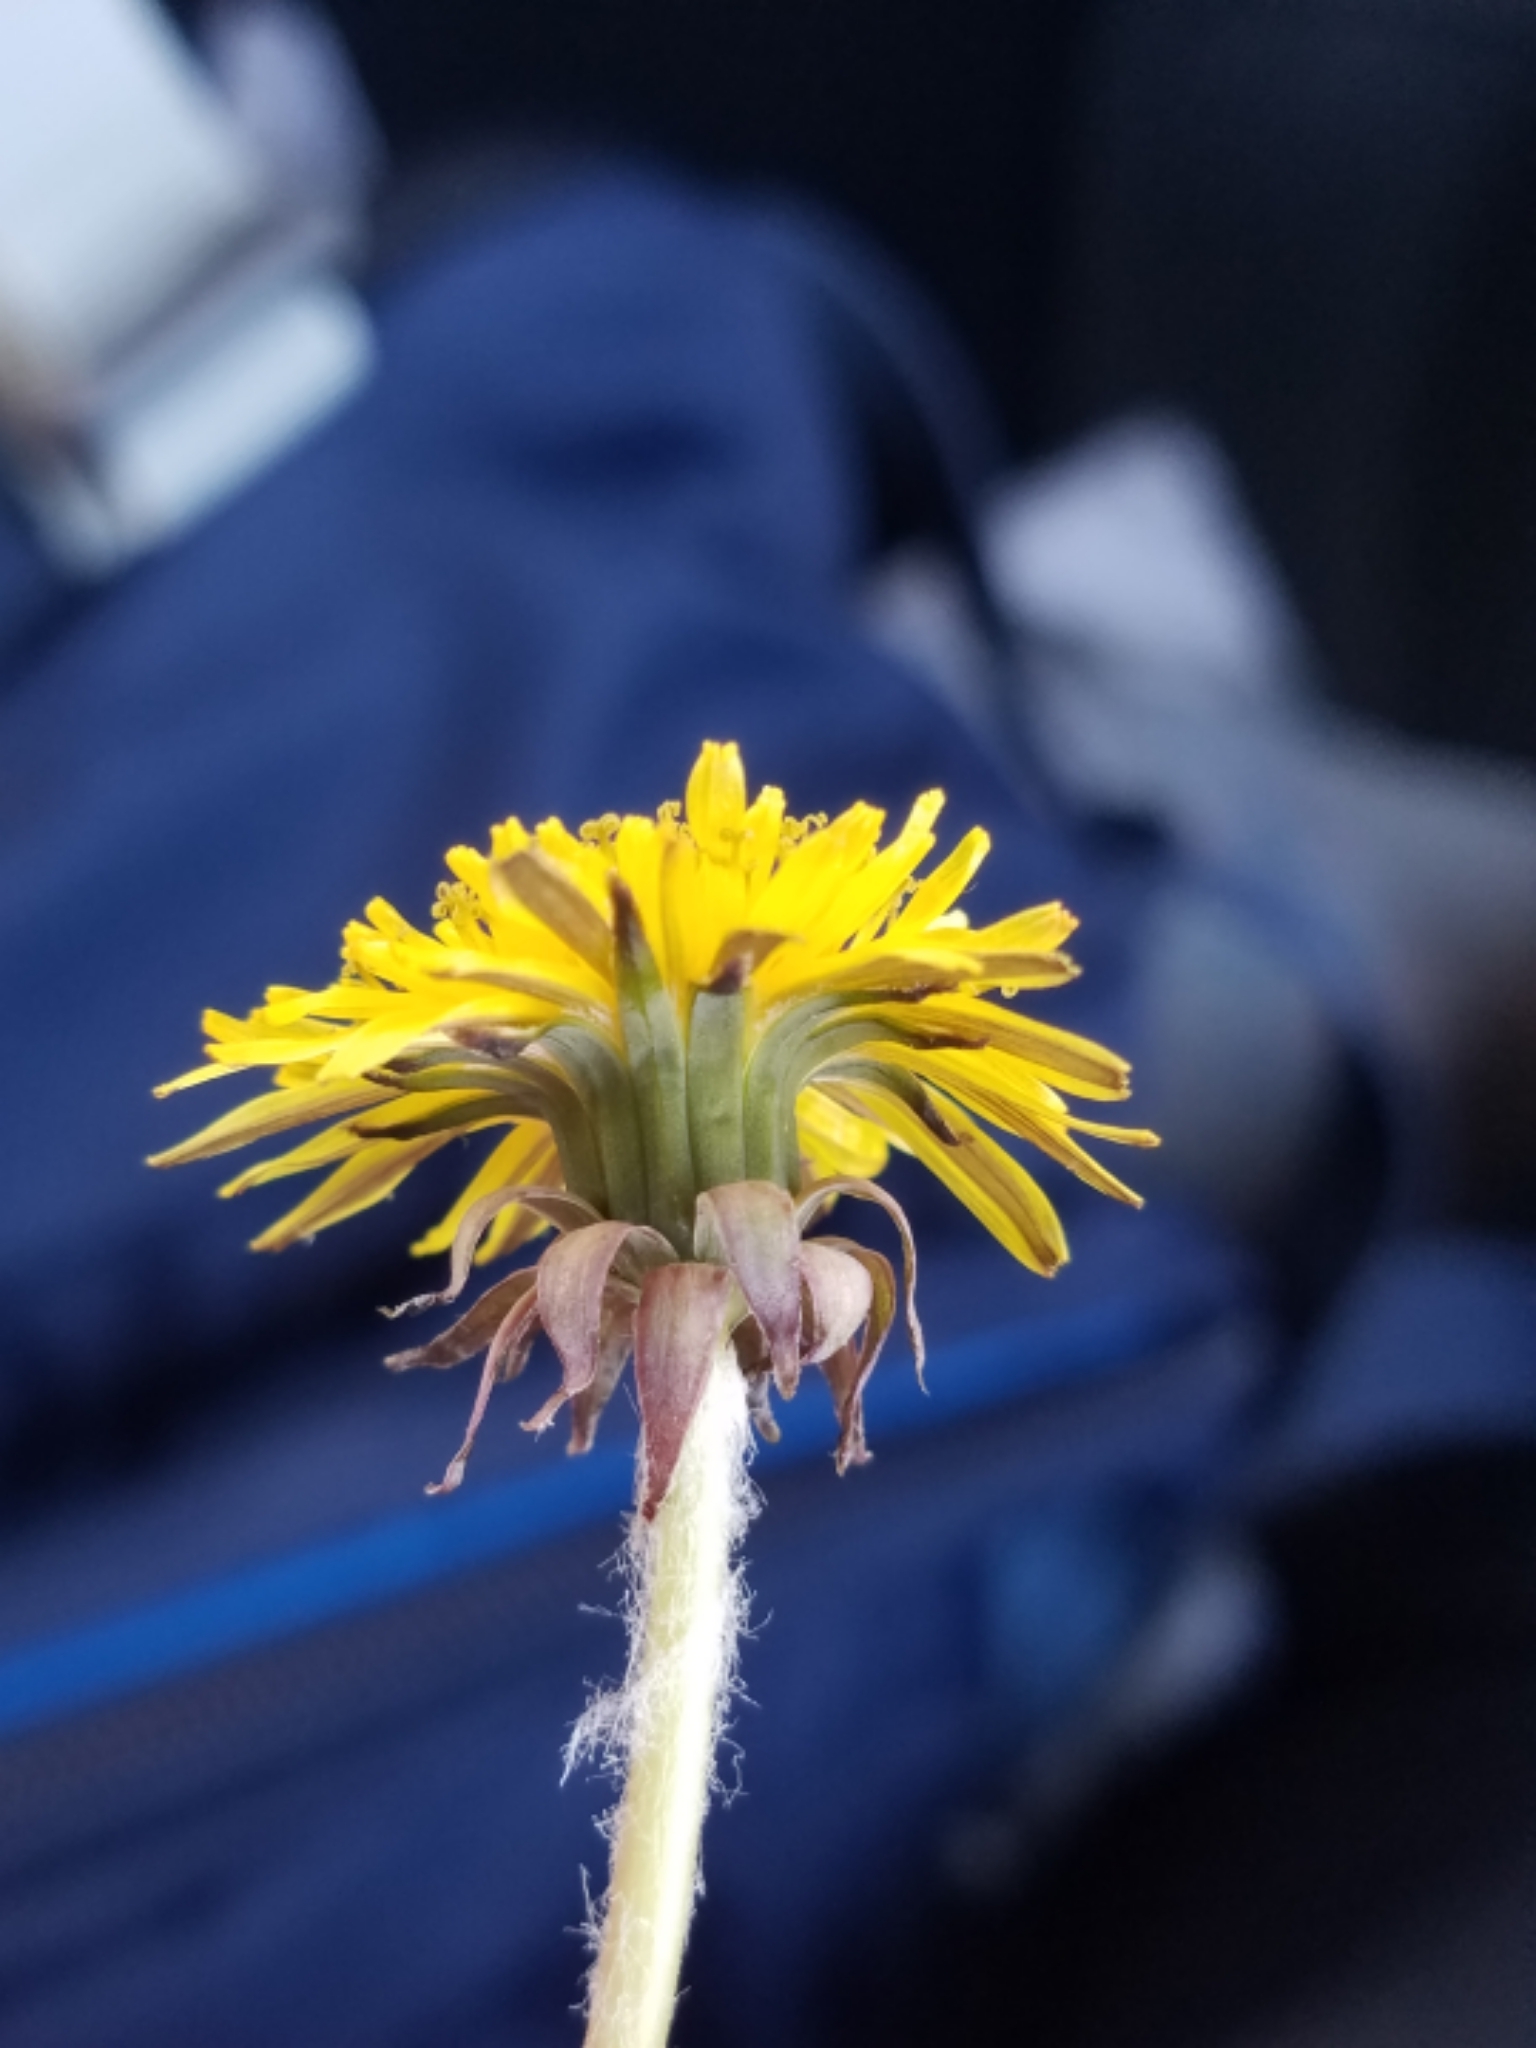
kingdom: Plantae
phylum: Tracheophyta
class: Magnoliopsida
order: Asterales
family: Asteraceae
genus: Taraxacum
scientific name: Taraxacum officinale
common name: Common dandelion
